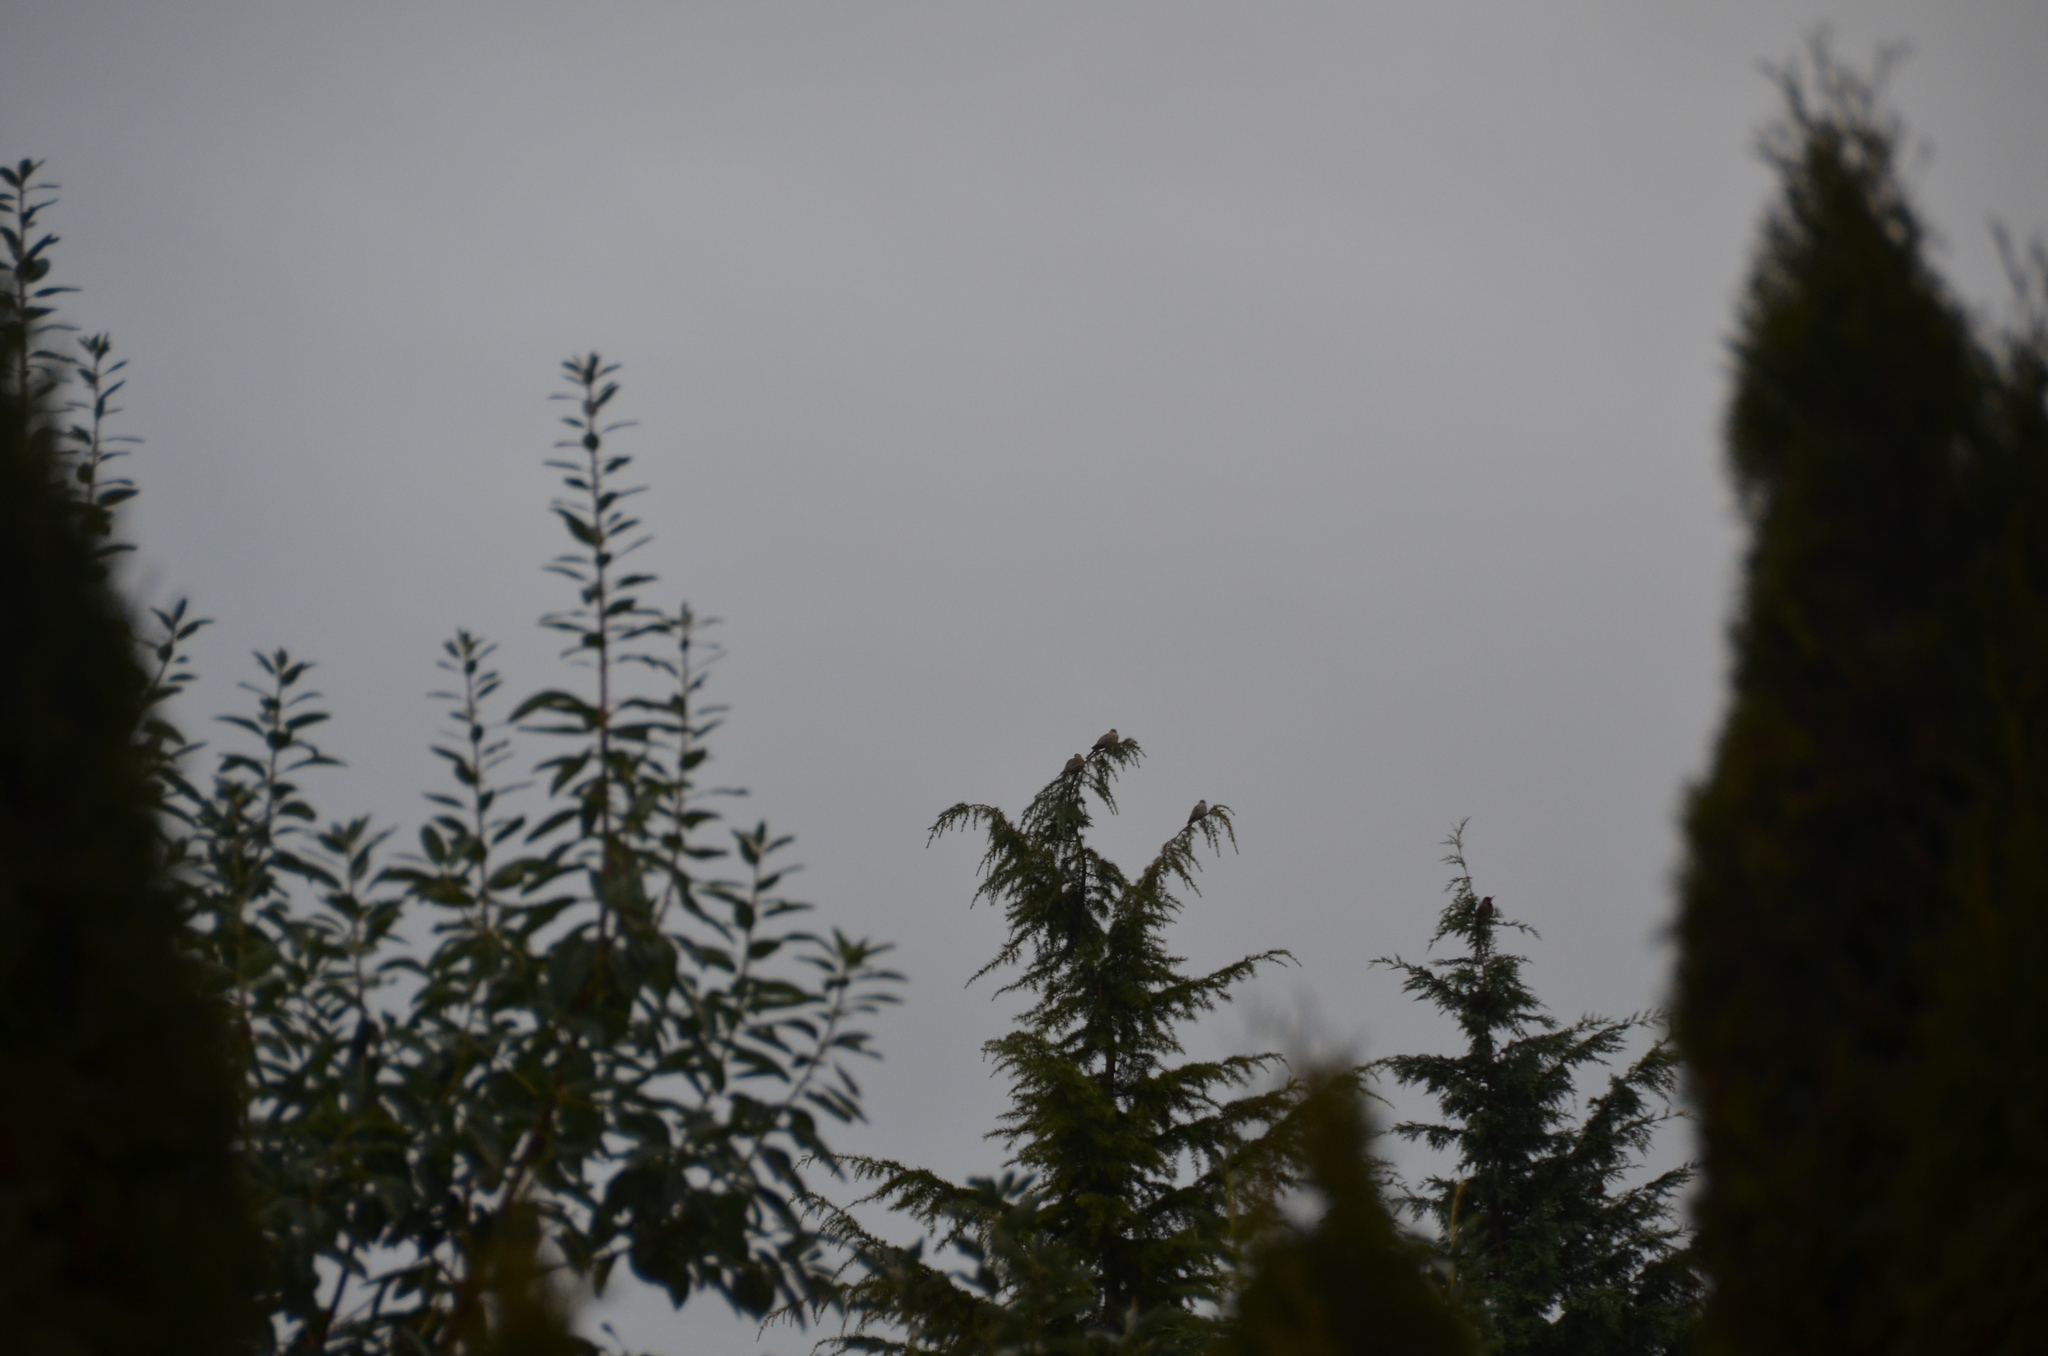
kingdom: Animalia
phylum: Chordata
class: Aves
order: Columbiformes
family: Columbidae
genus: Streptopelia
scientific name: Streptopelia decaocto
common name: Eurasian collared dove
